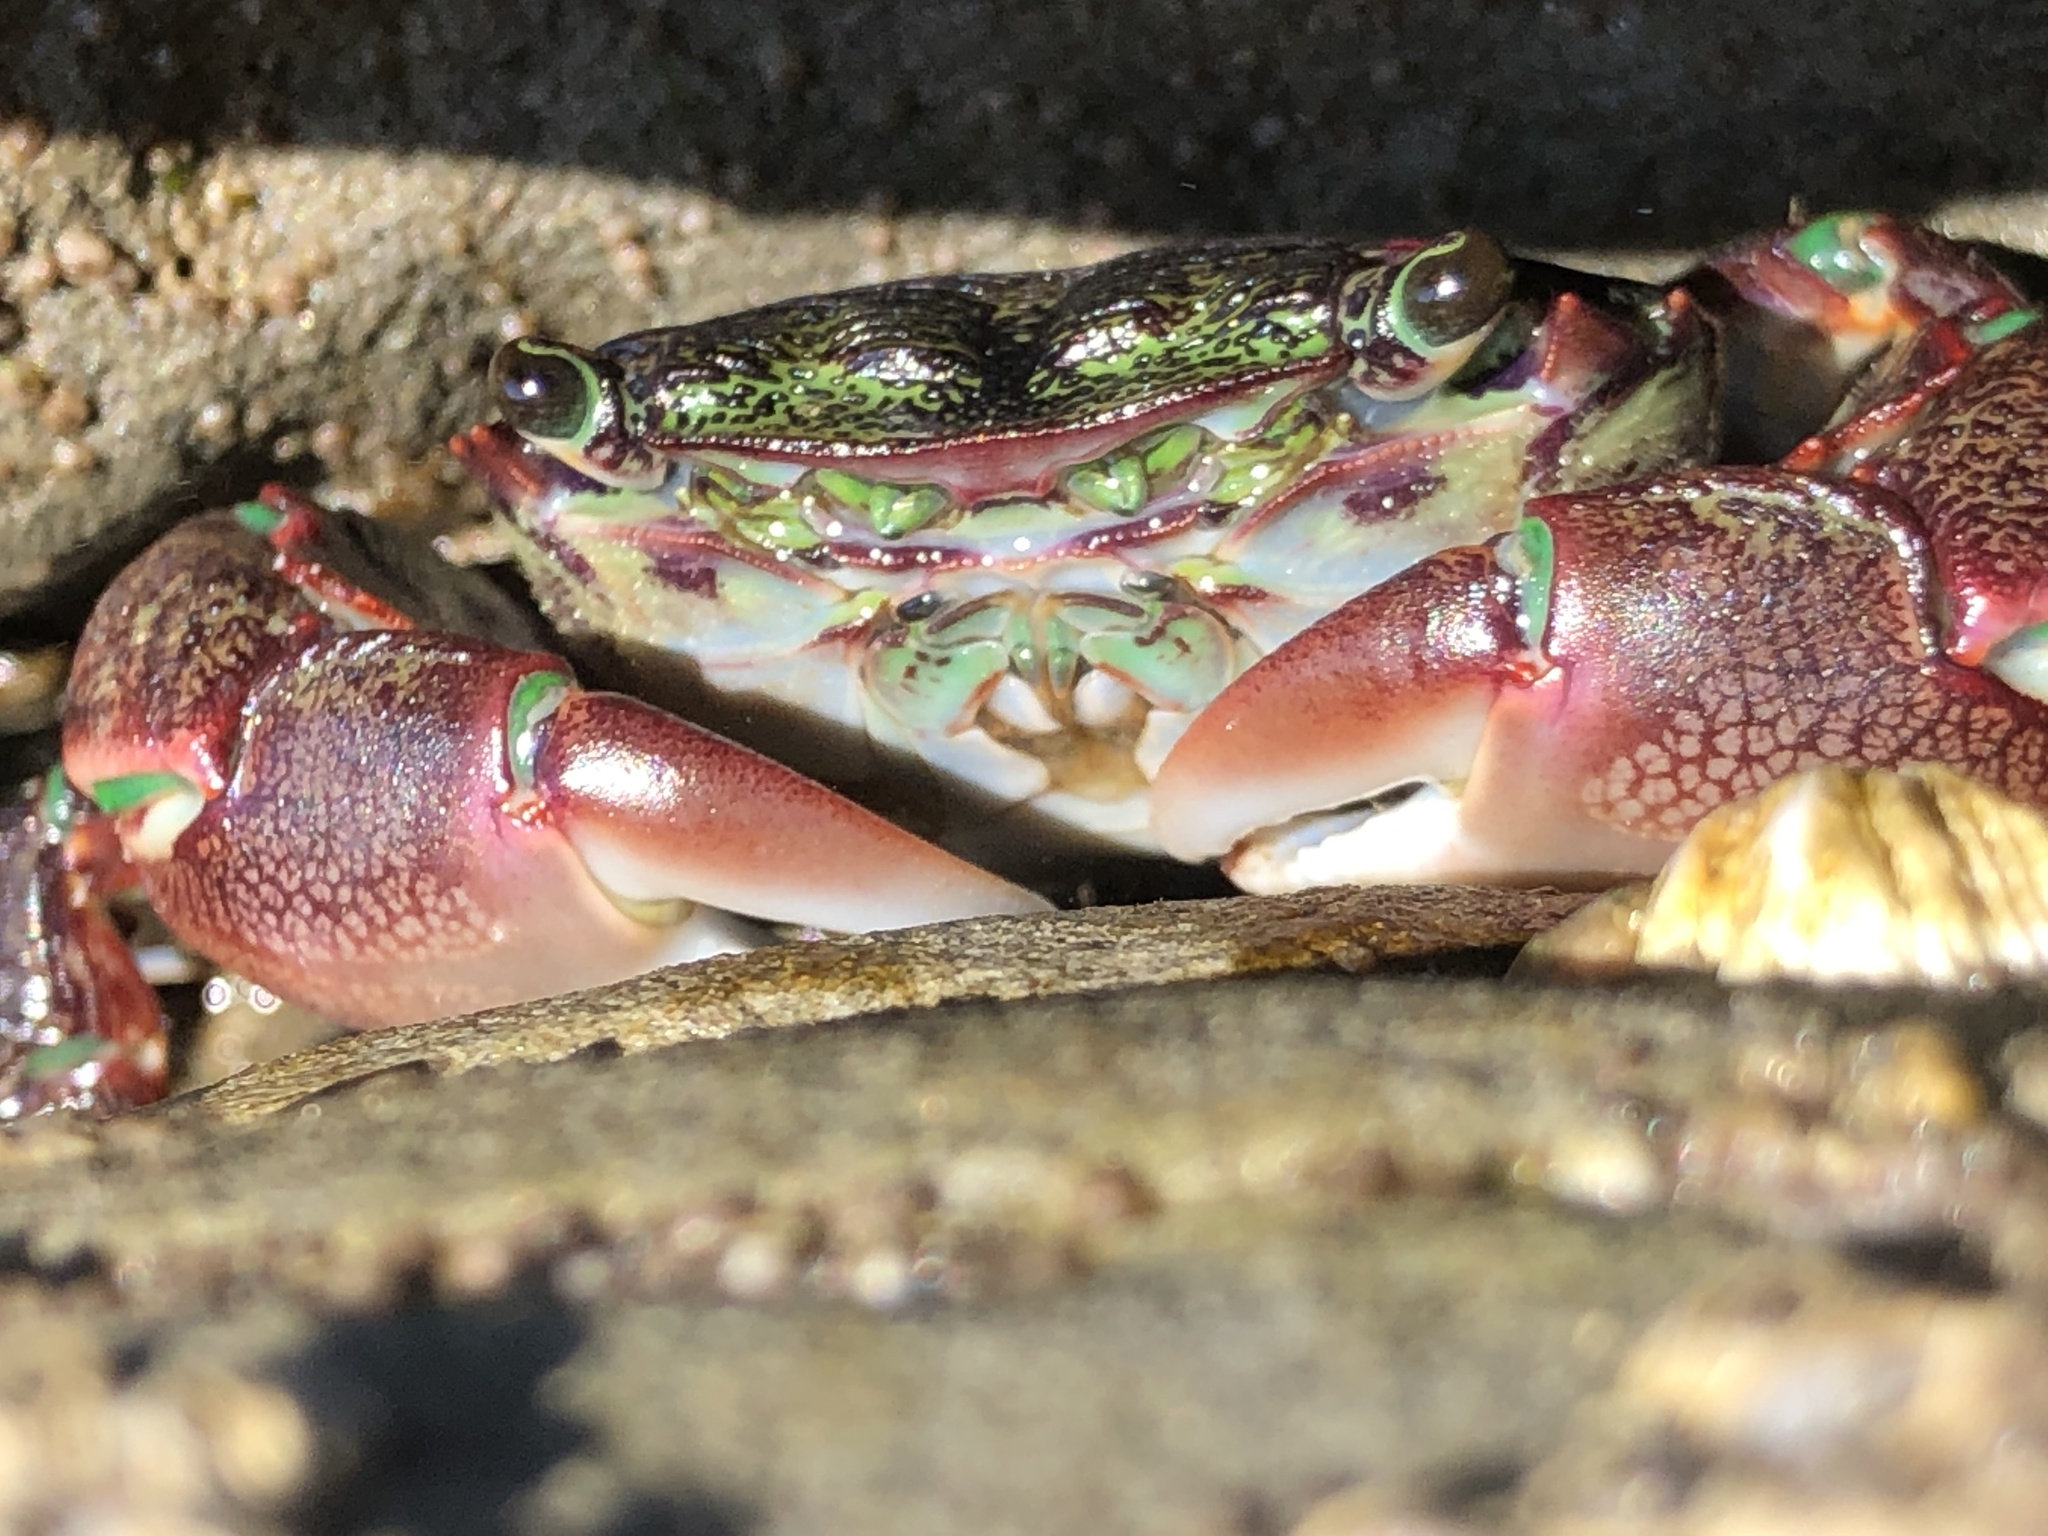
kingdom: Animalia
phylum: Arthropoda
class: Malacostraca
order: Decapoda
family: Grapsidae
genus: Pachygrapsus
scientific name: Pachygrapsus crassipes
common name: Striped shore crab
